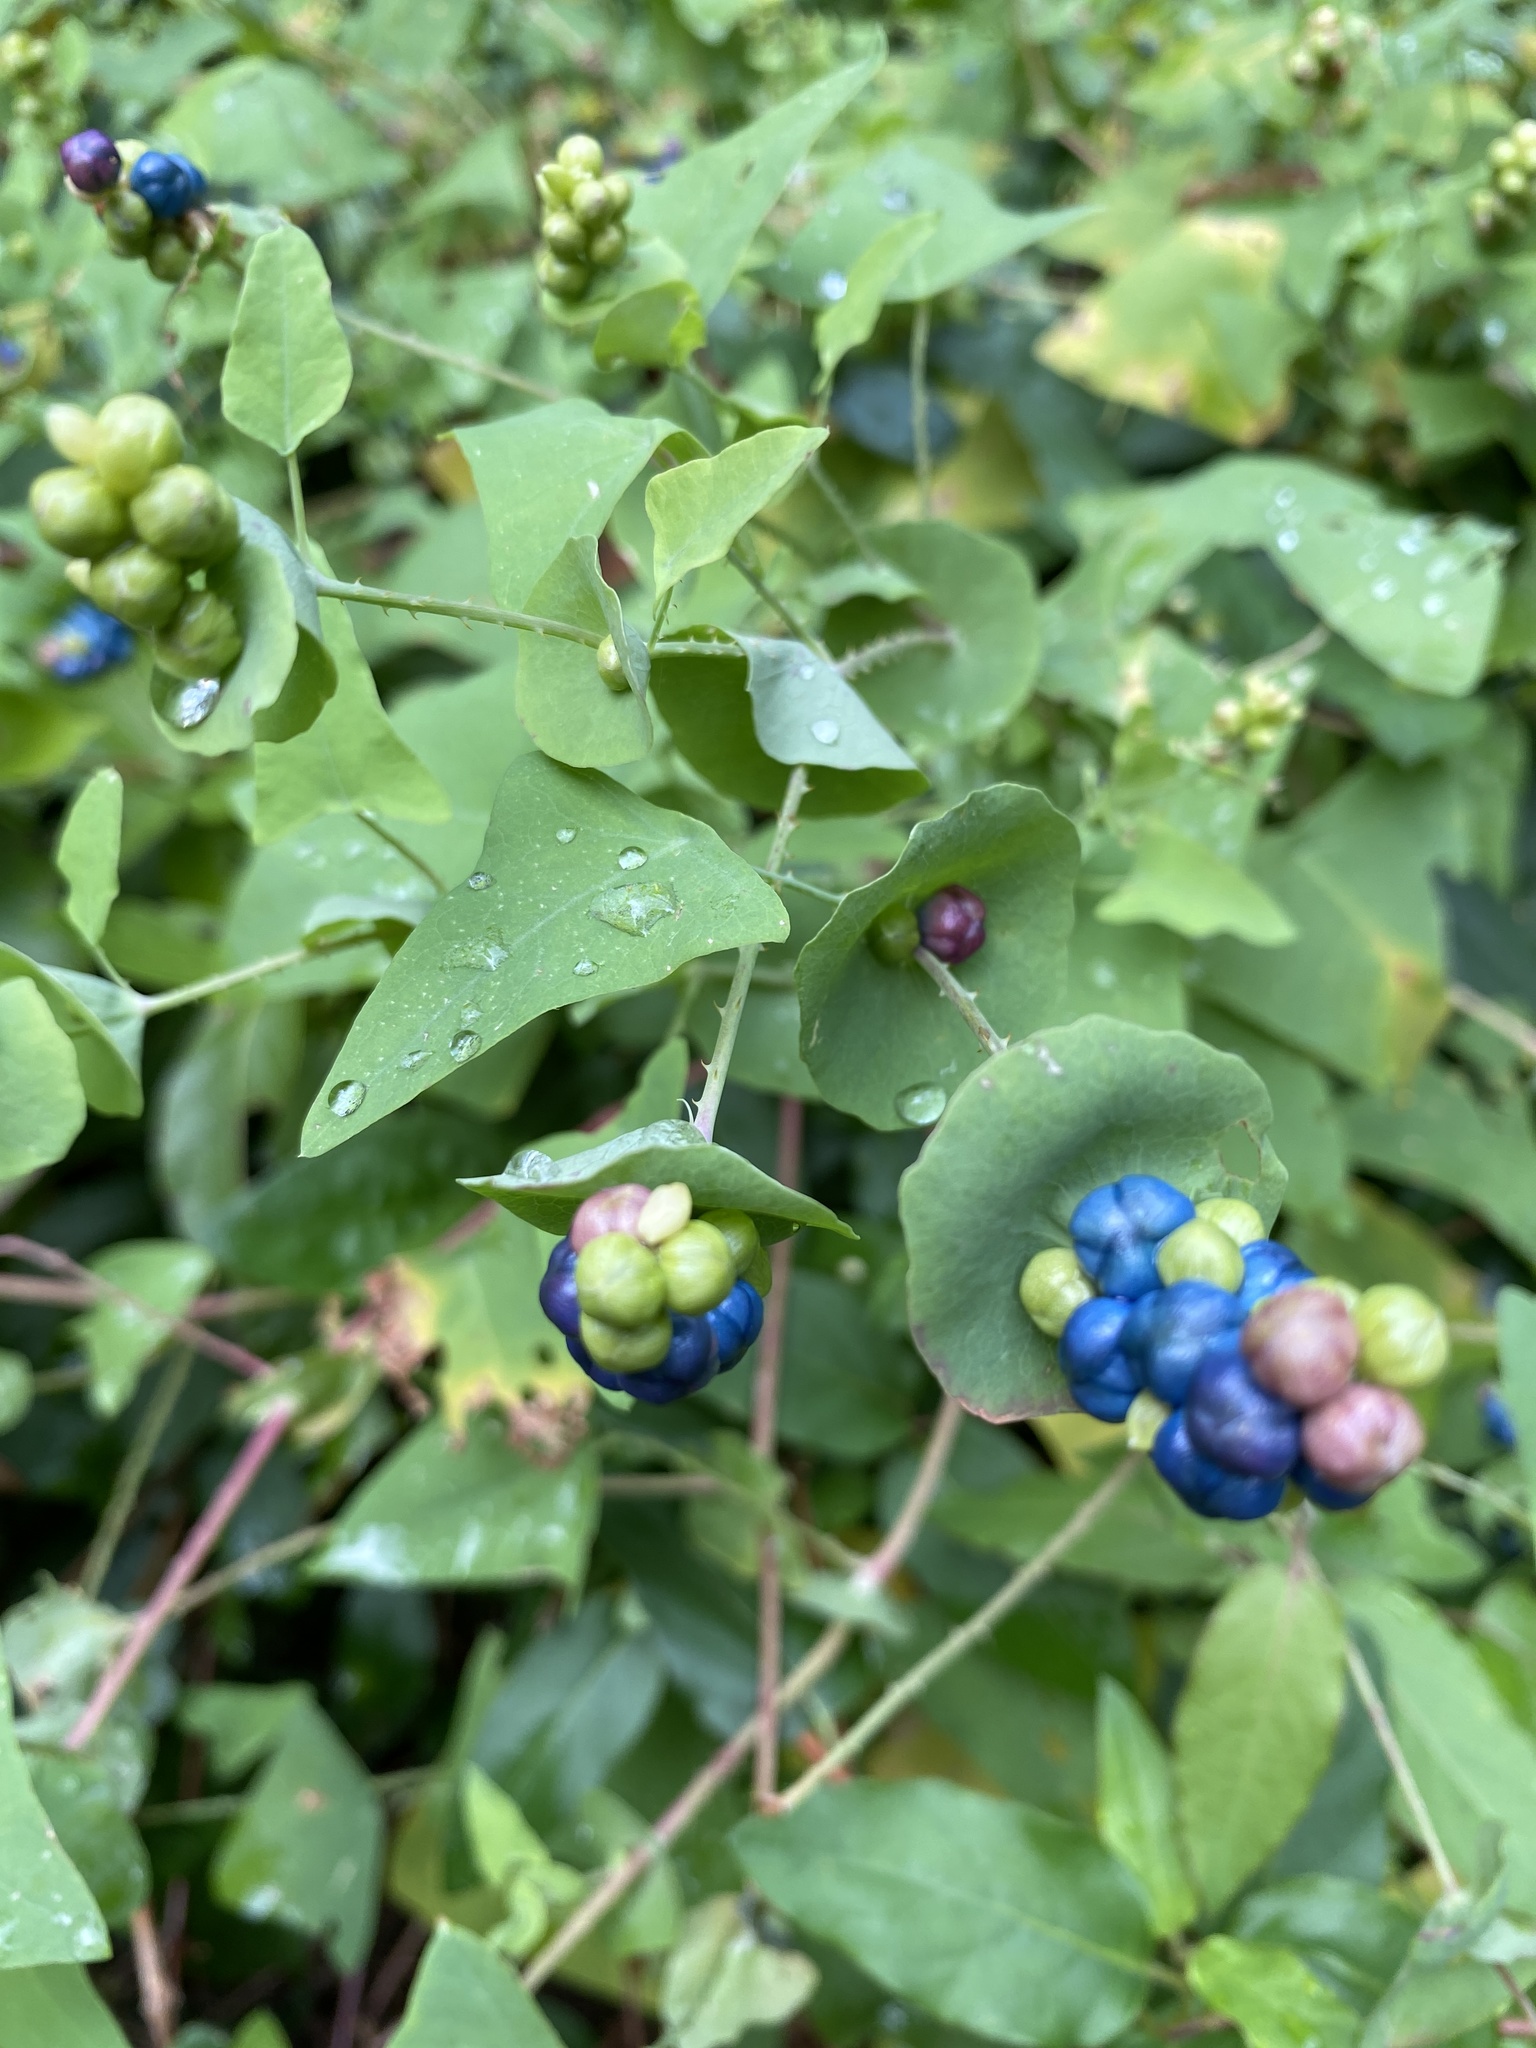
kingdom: Plantae
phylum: Tracheophyta
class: Magnoliopsida
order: Caryophyllales
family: Polygonaceae
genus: Persicaria
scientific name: Persicaria perfoliata
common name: Asiatic tearthumb
